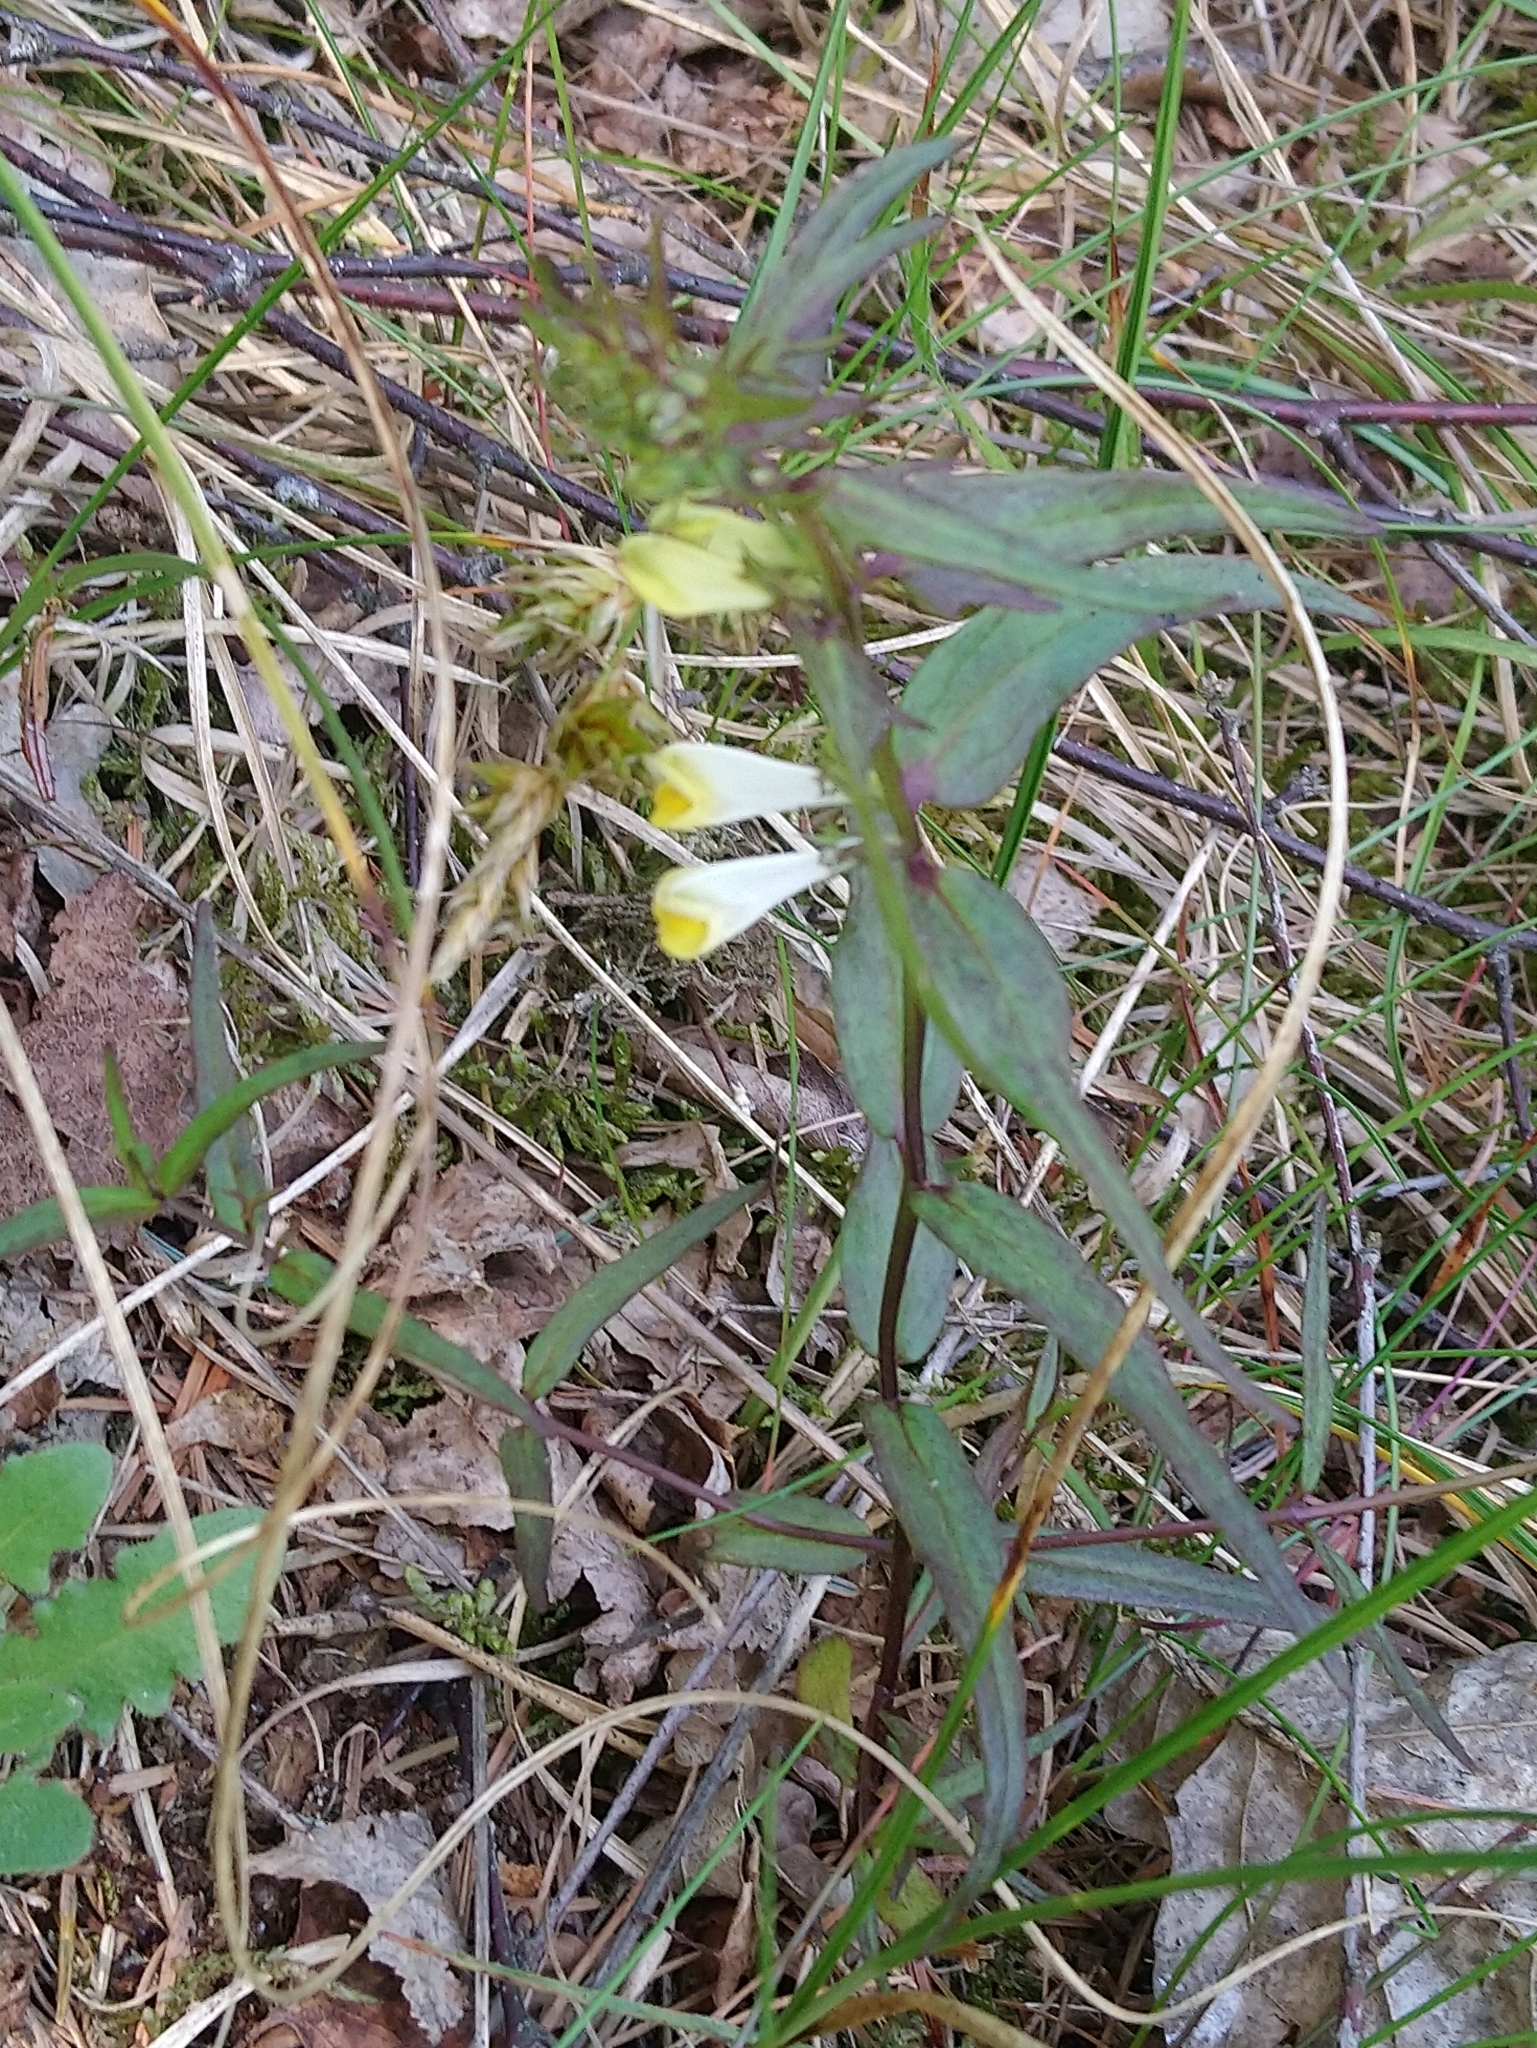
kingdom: Plantae
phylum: Tracheophyta
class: Magnoliopsida
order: Lamiales
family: Orobanchaceae
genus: Melampyrum
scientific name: Melampyrum pratense
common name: Common cow-wheat
